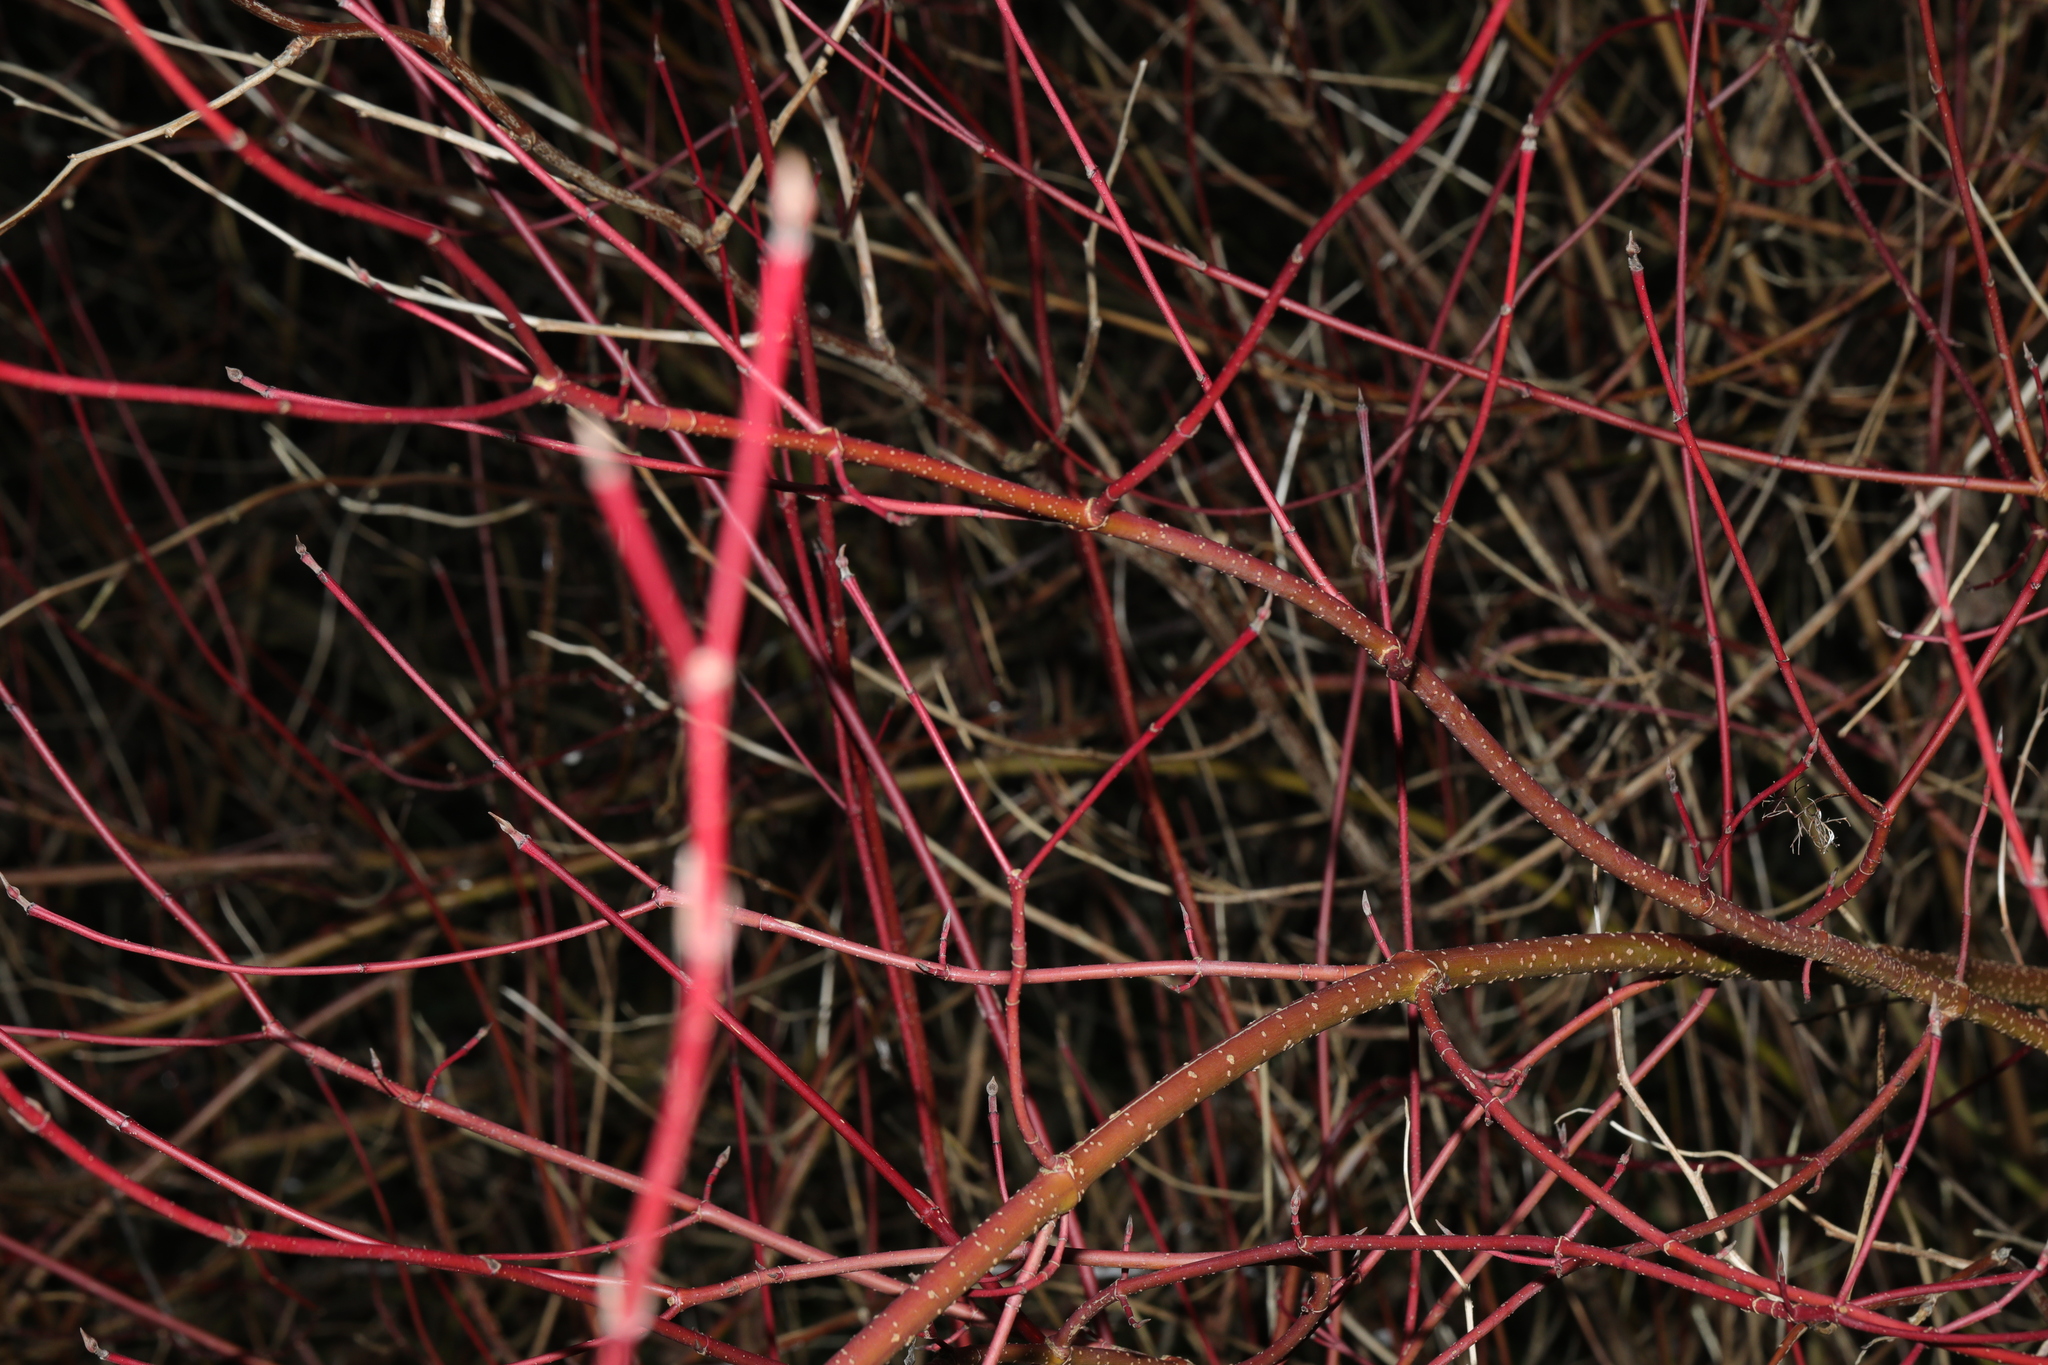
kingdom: Plantae
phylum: Tracheophyta
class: Magnoliopsida
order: Cornales
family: Cornaceae
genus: Cornus
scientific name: Cornus alba
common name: White dogwood
